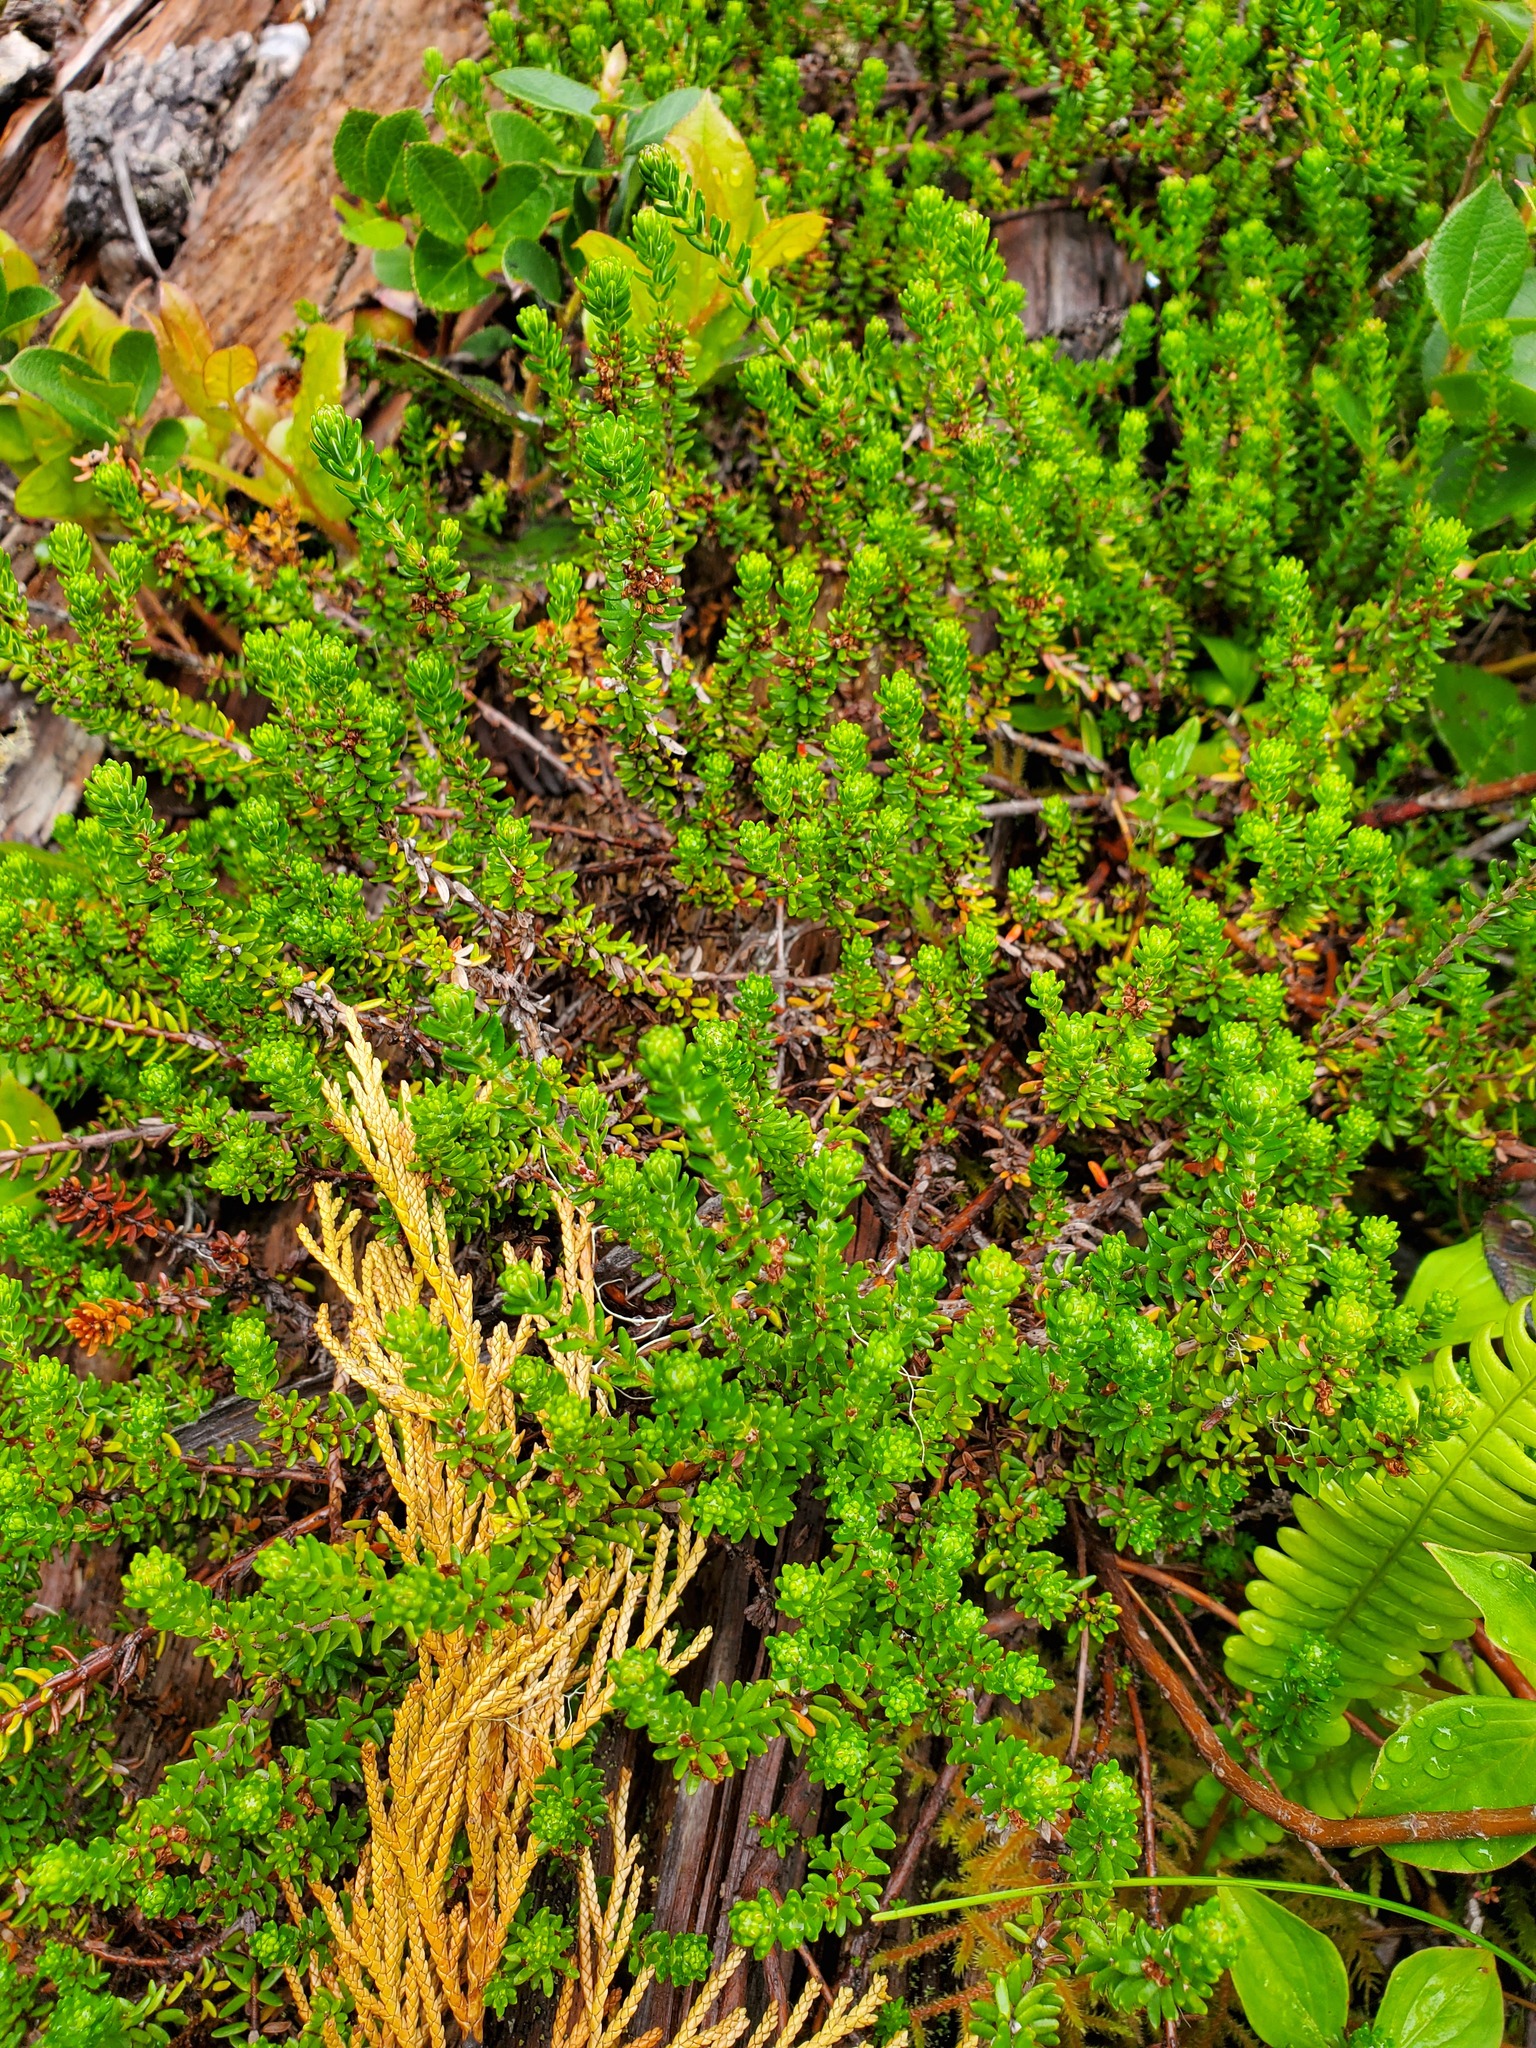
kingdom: Plantae
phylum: Tracheophyta
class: Magnoliopsida
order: Ericales
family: Ericaceae
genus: Empetrum
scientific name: Empetrum nigrum
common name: Black crowberry
